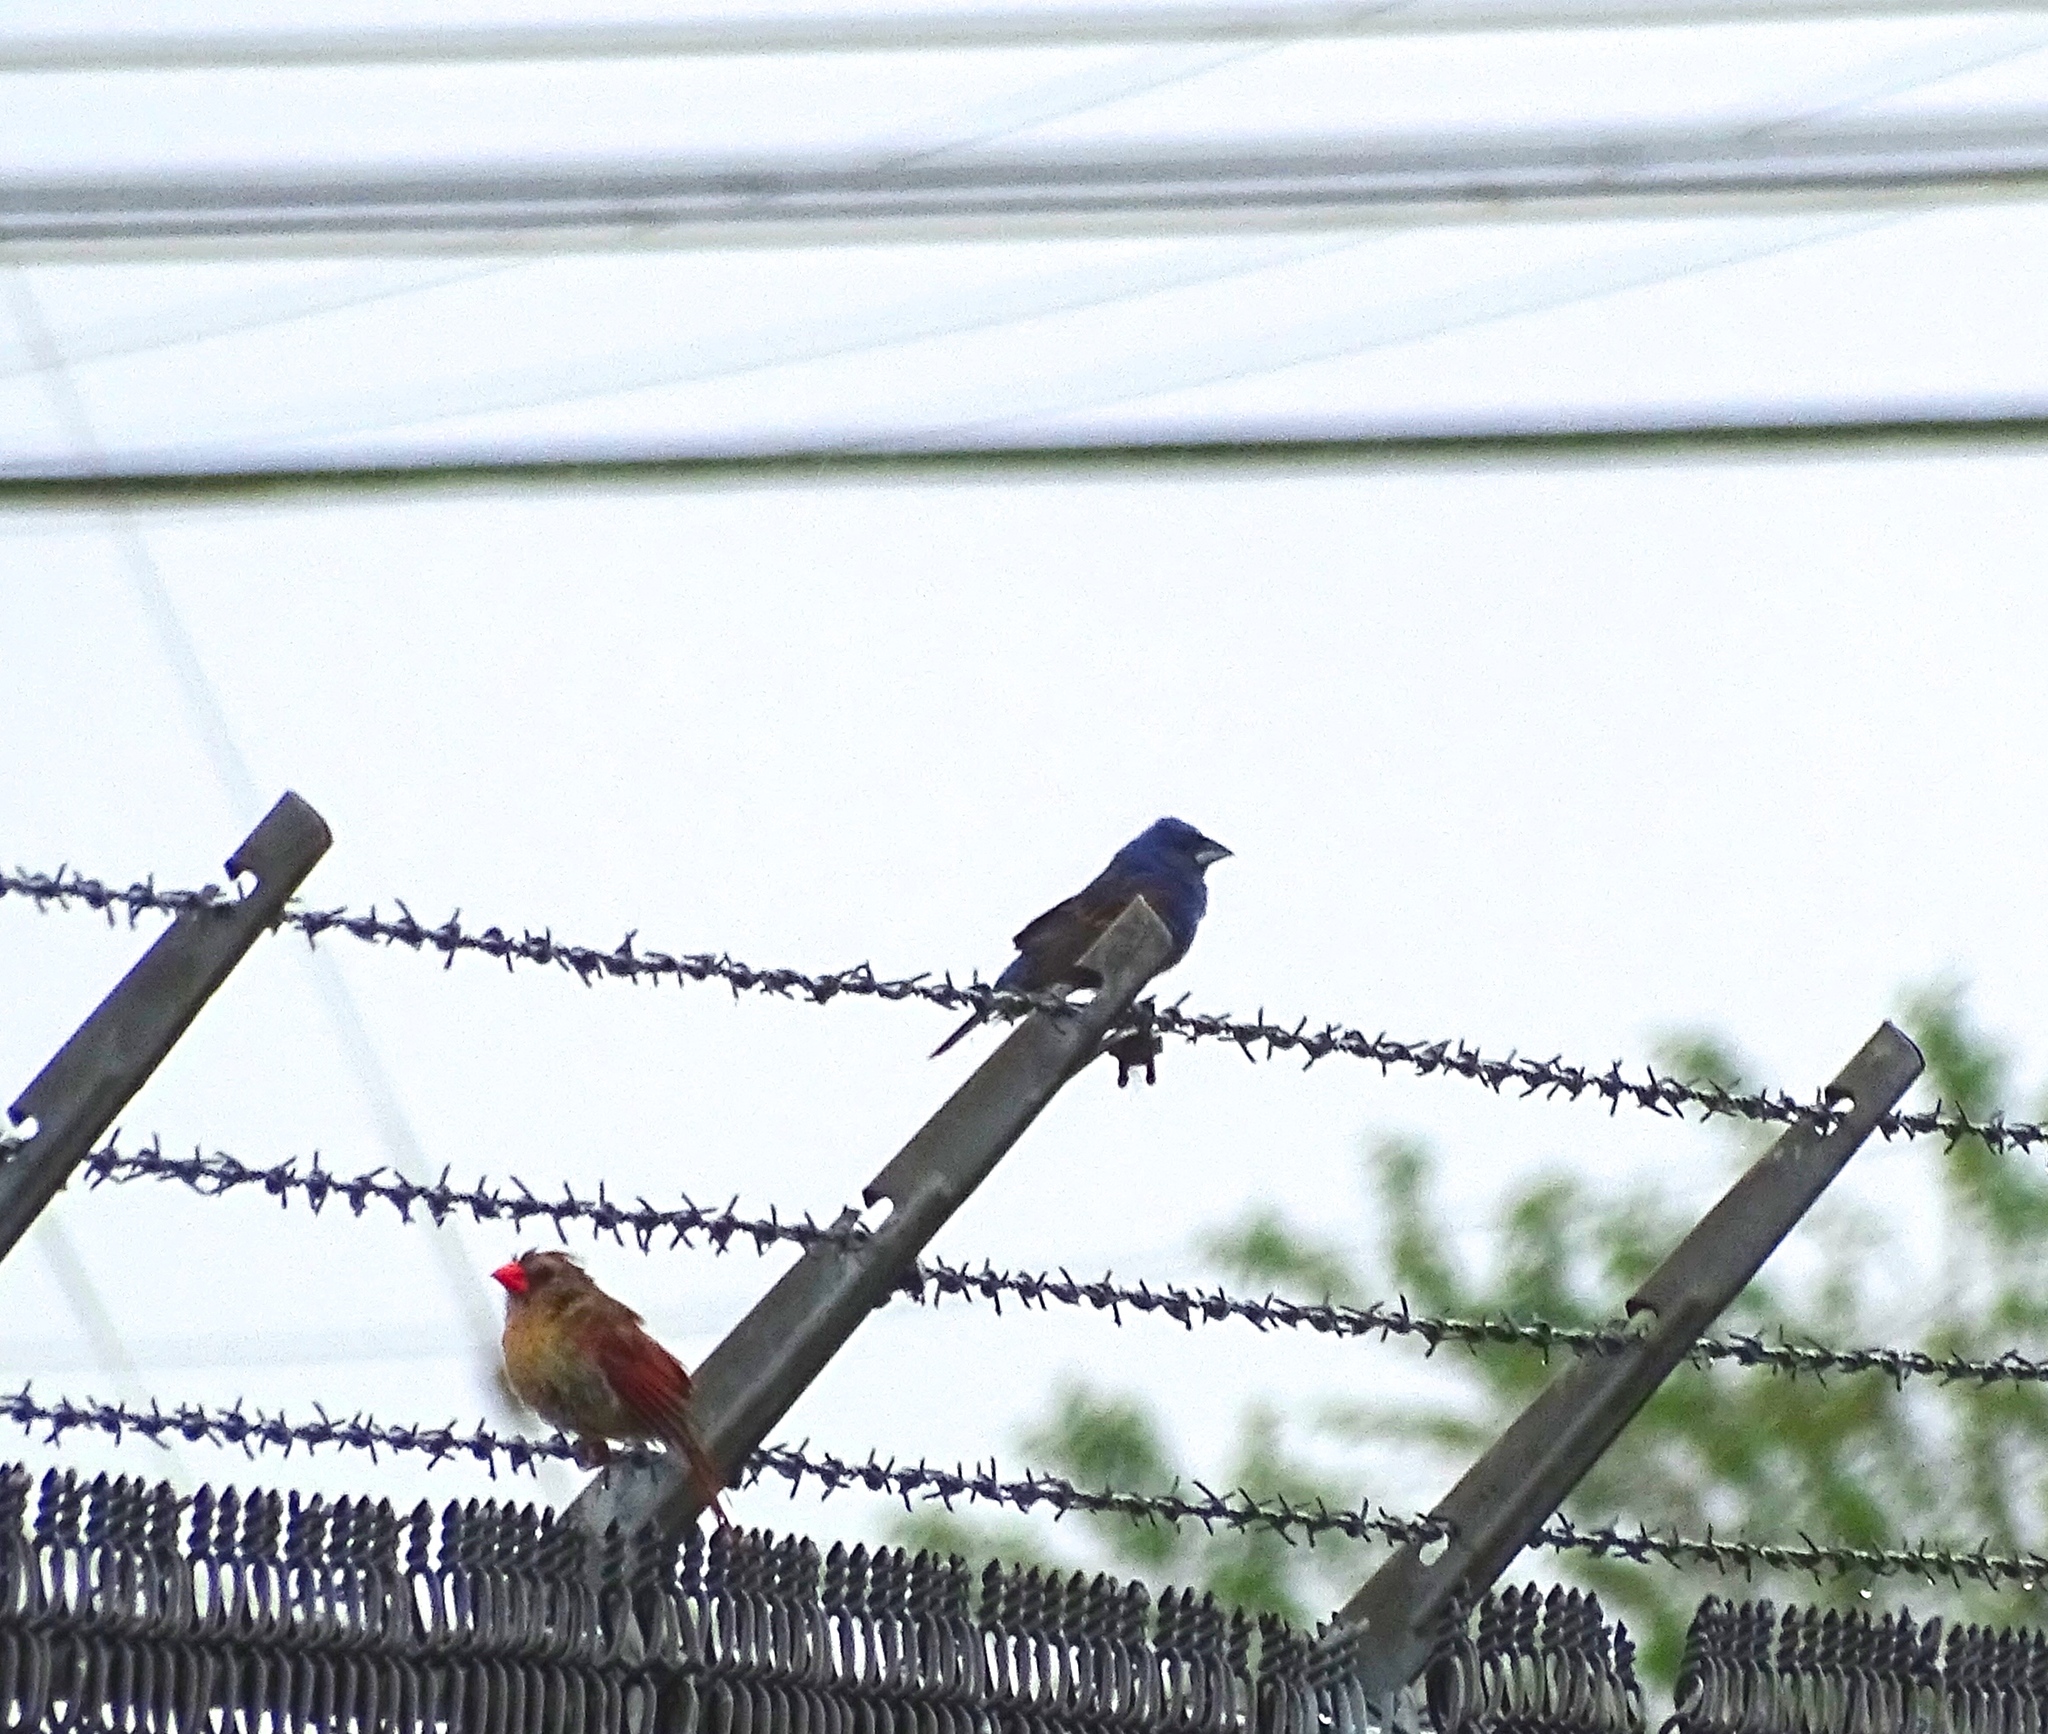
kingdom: Animalia
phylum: Chordata
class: Aves
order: Passeriformes
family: Cardinalidae
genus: Passerina
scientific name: Passerina caerulea
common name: Blue grosbeak
